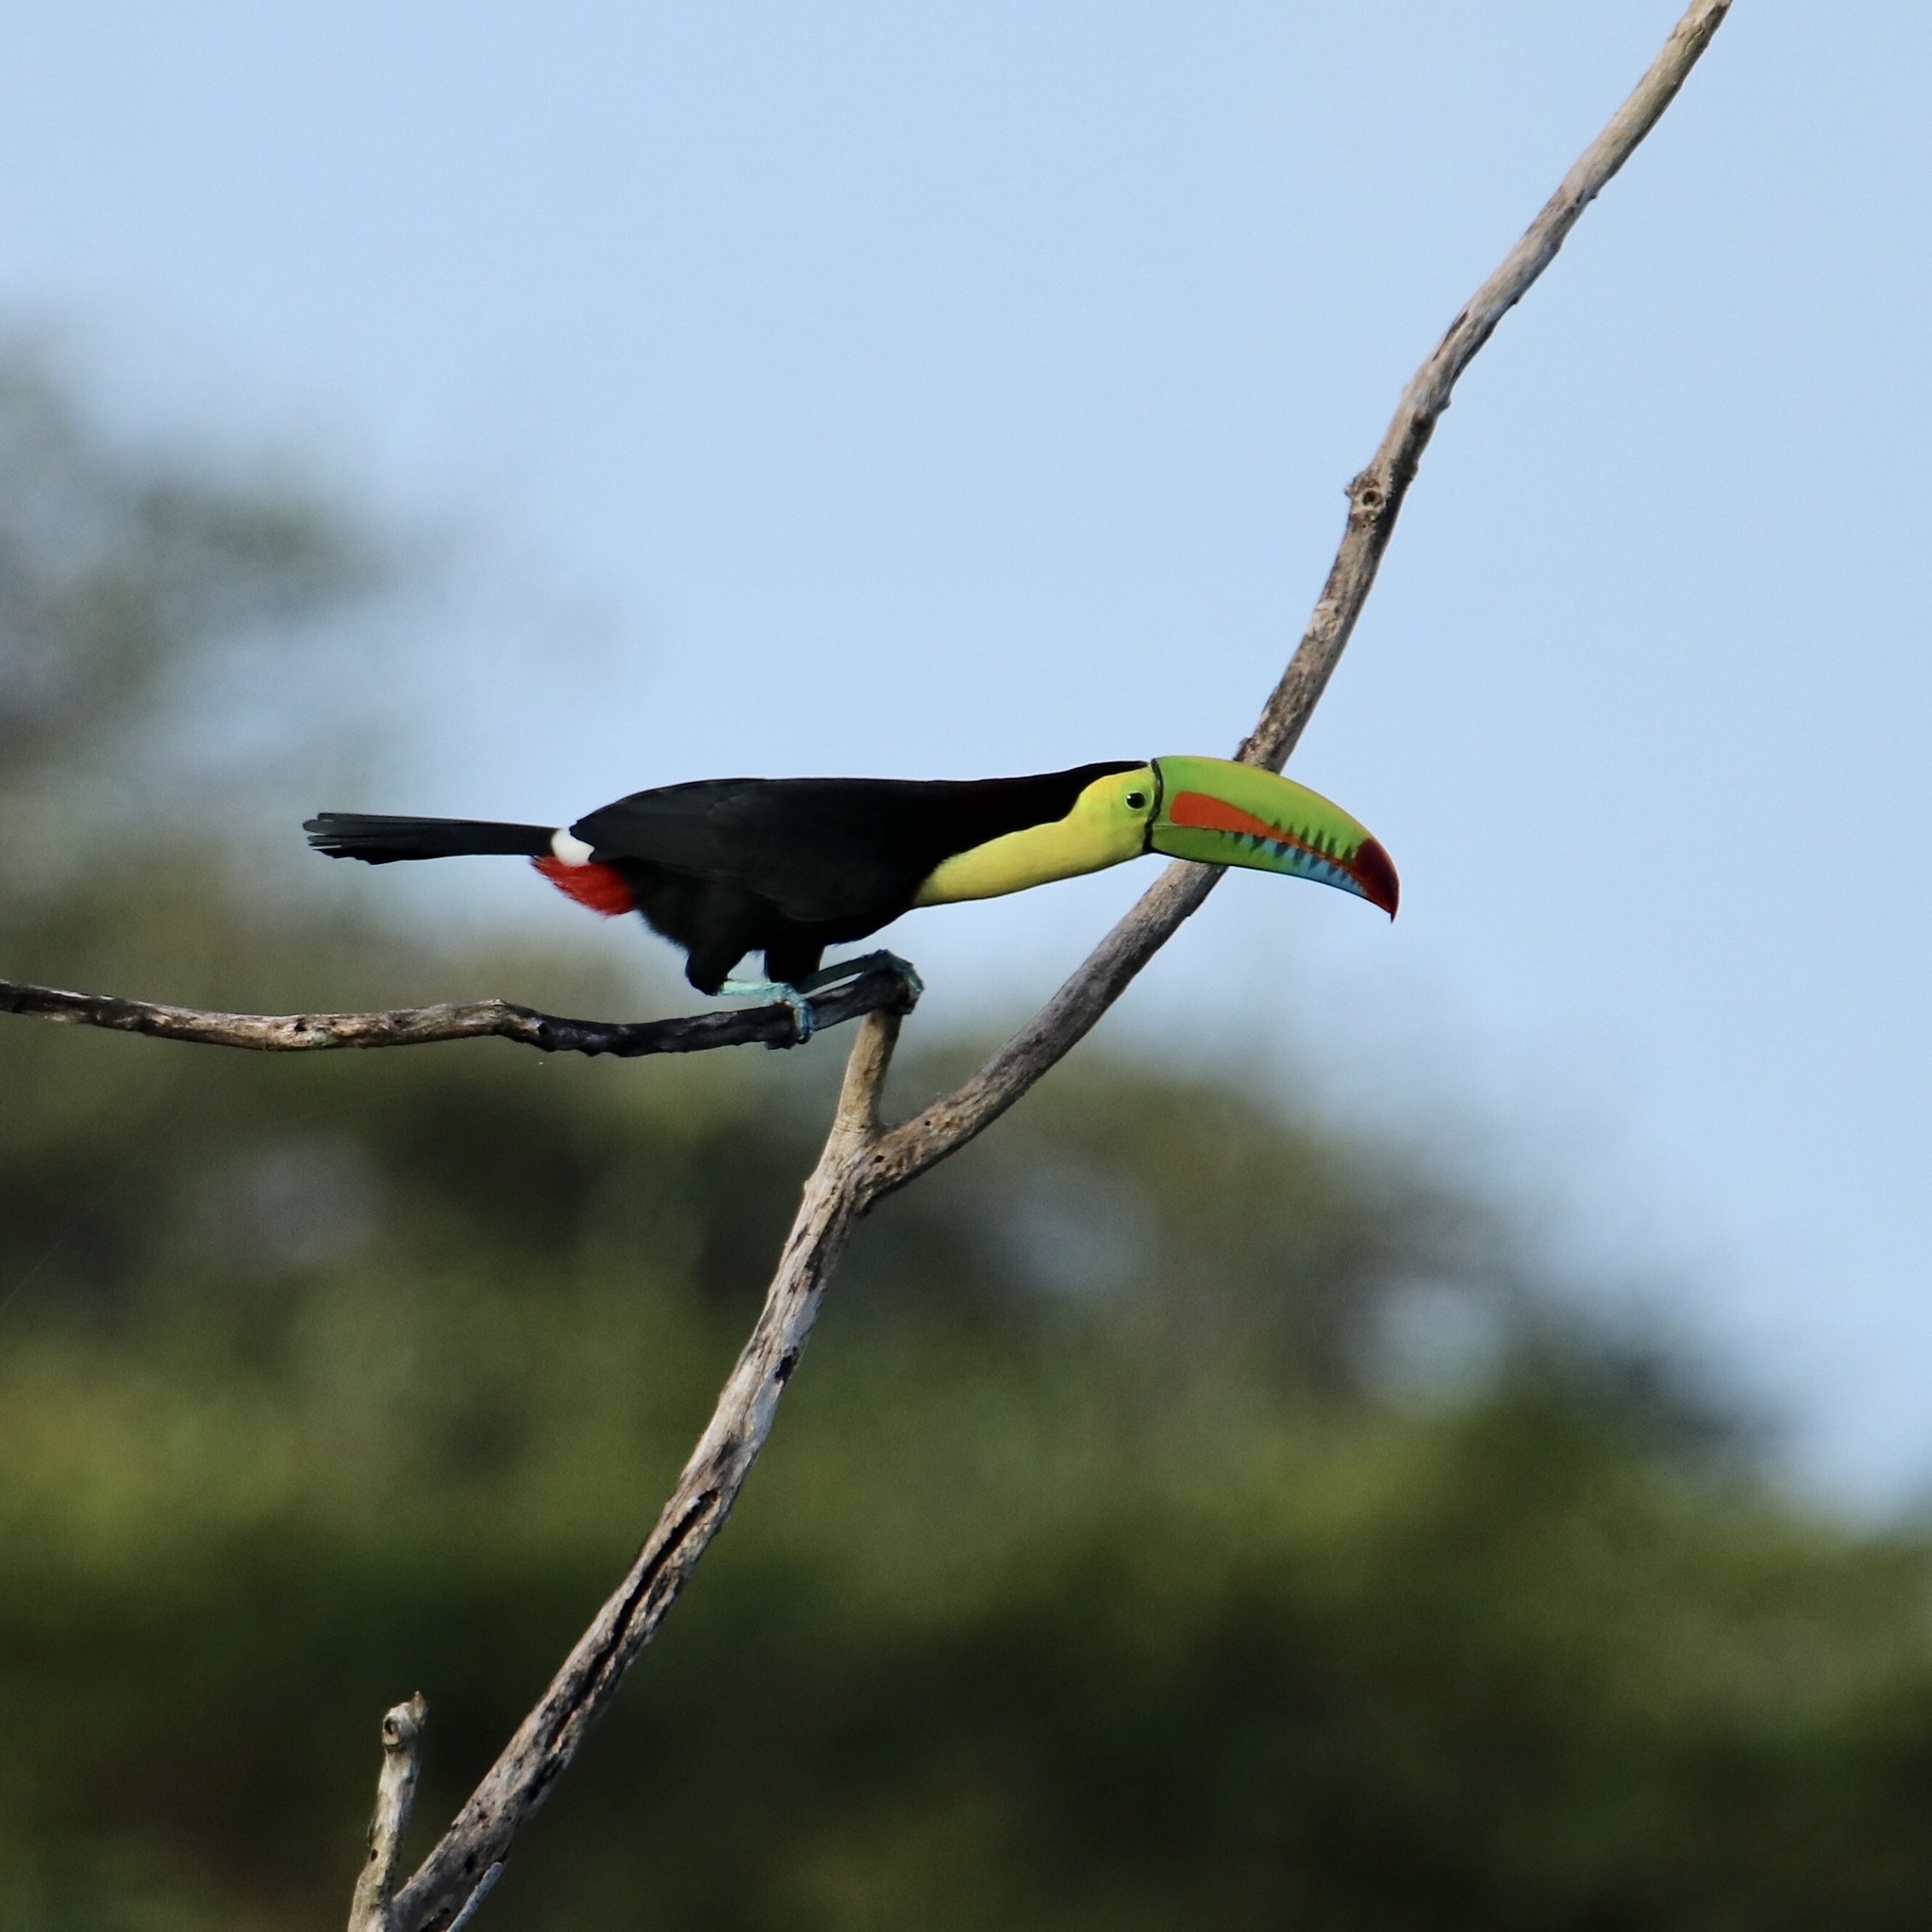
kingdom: Animalia
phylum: Chordata
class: Aves
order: Piciformes
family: Ramphastidae
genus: Ramphastos
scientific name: Ramphastos sulfuratus
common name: Keel-billed toucan
